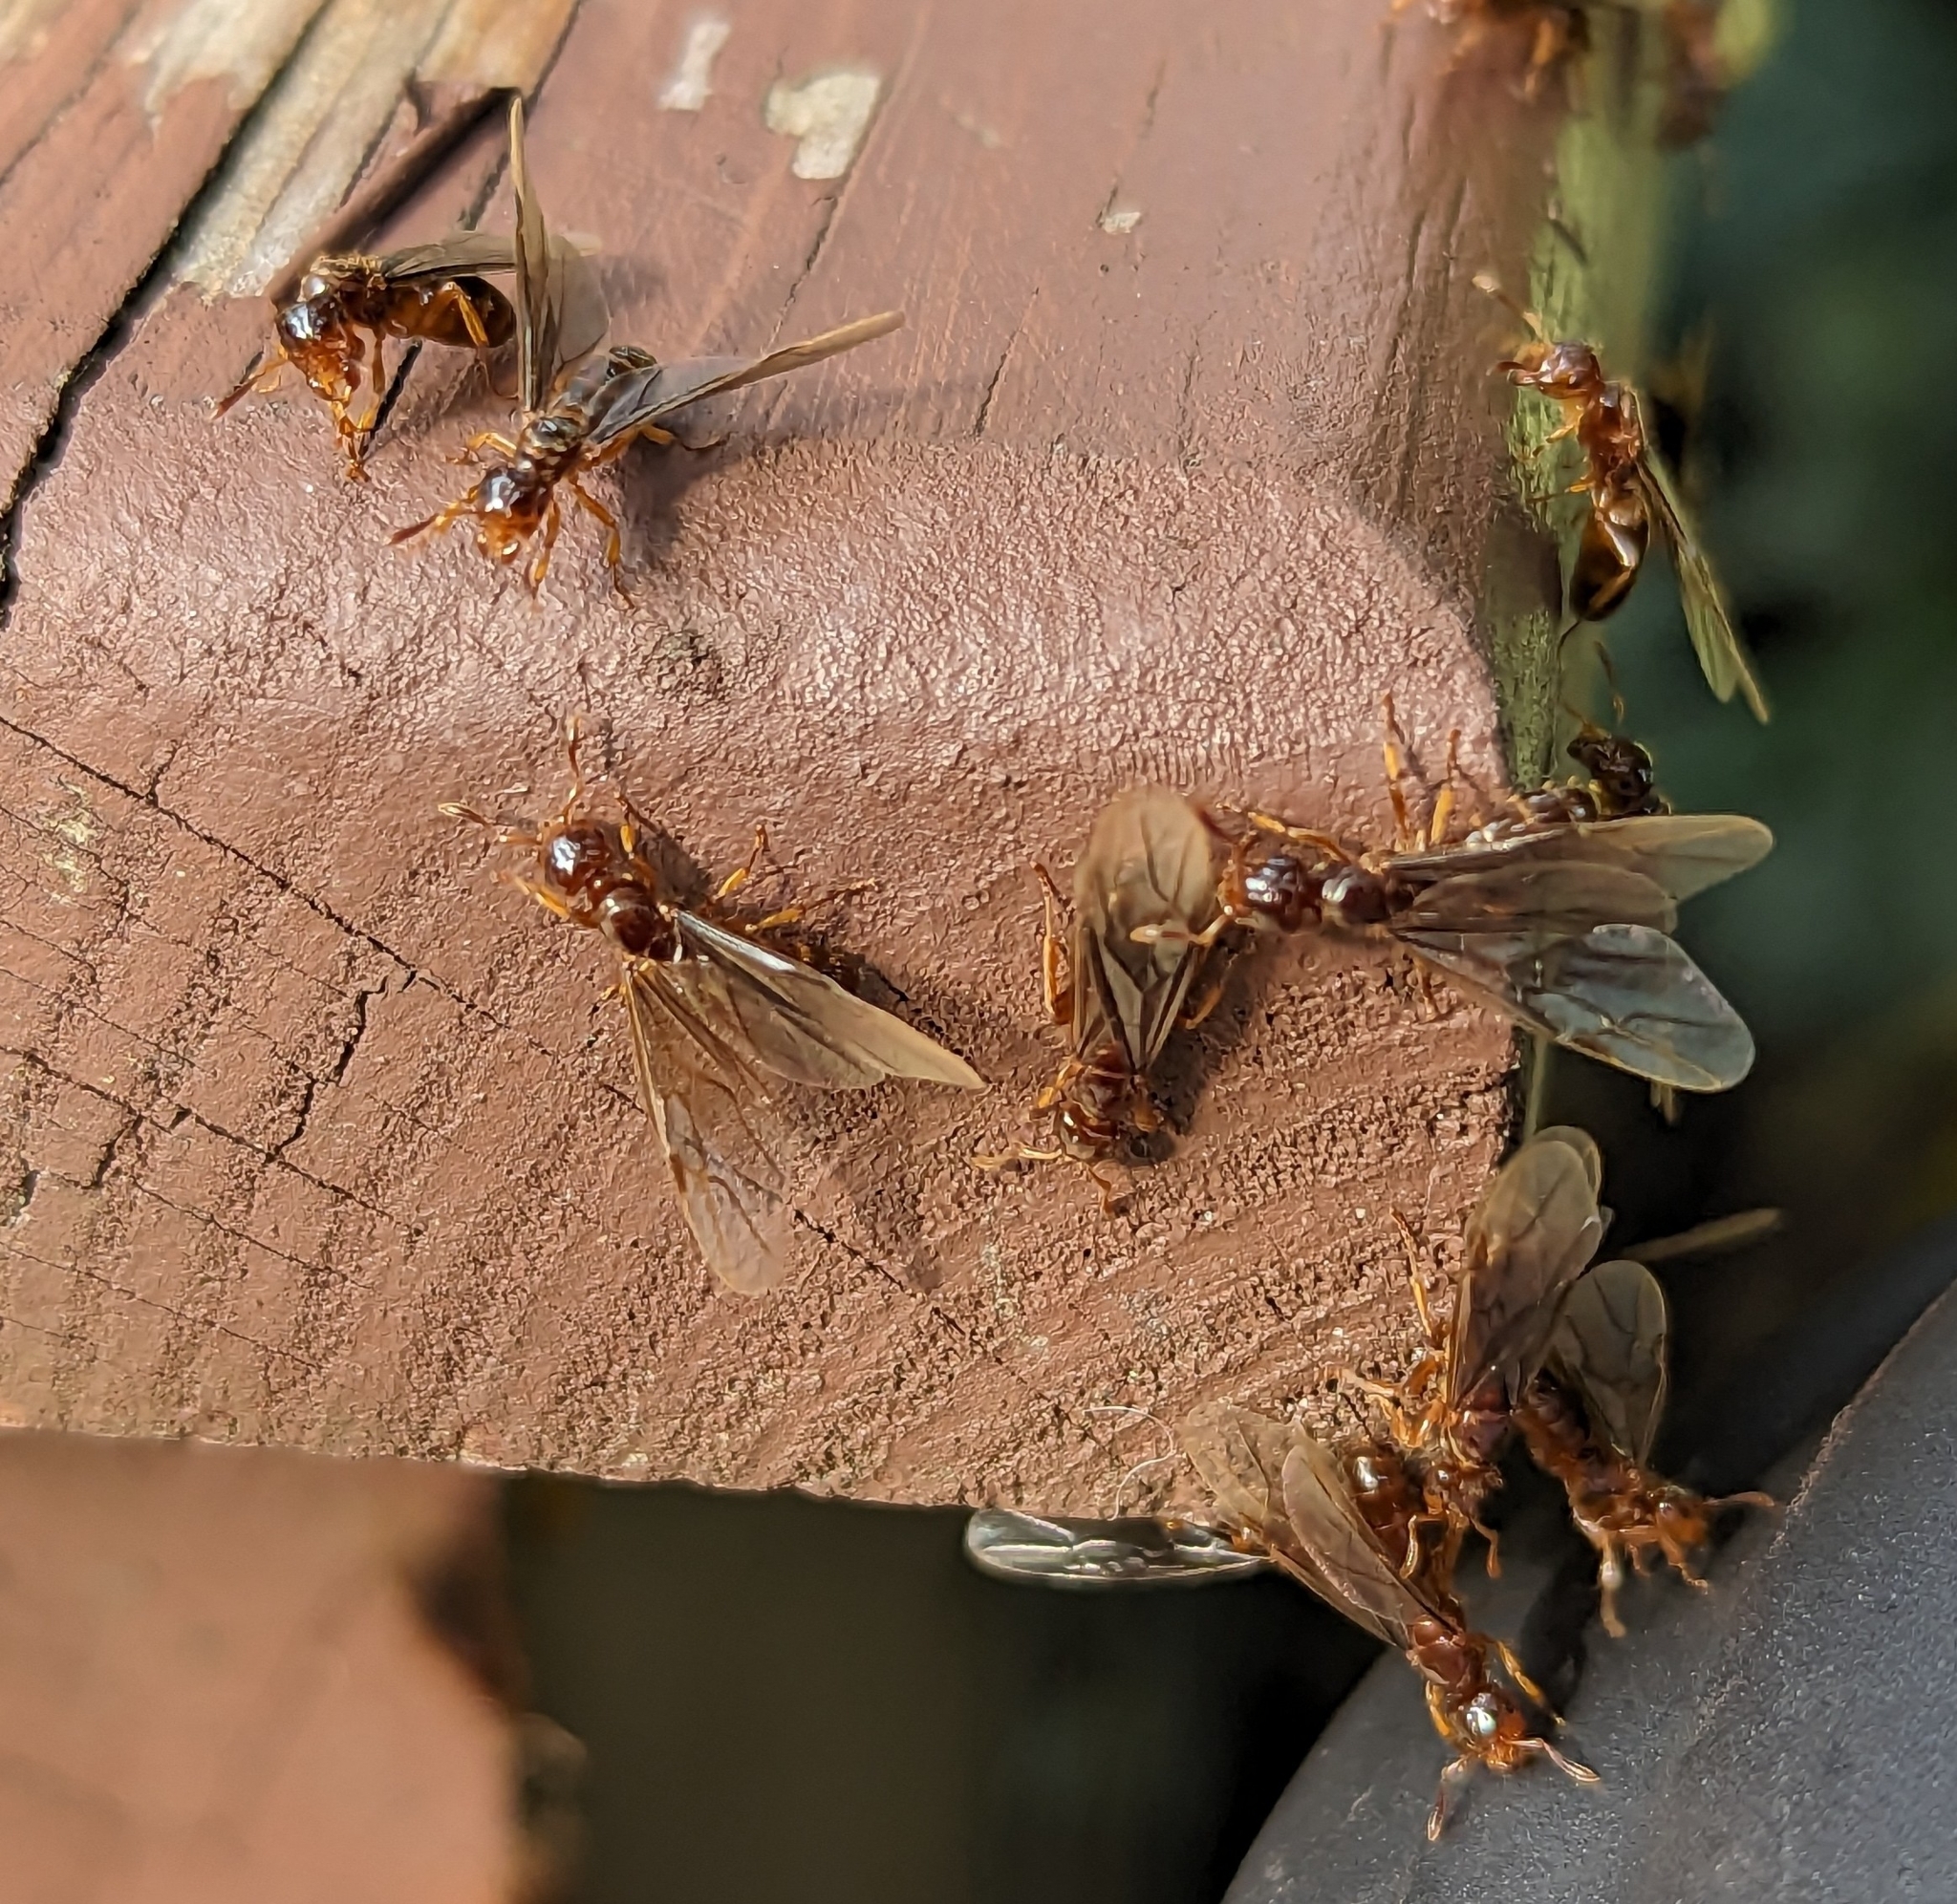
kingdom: Animalia
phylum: Arthropoda
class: Insecta
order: Hymenoptera
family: Formicidae
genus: Lasius
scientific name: Lasius claviger
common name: Common citronella ant
